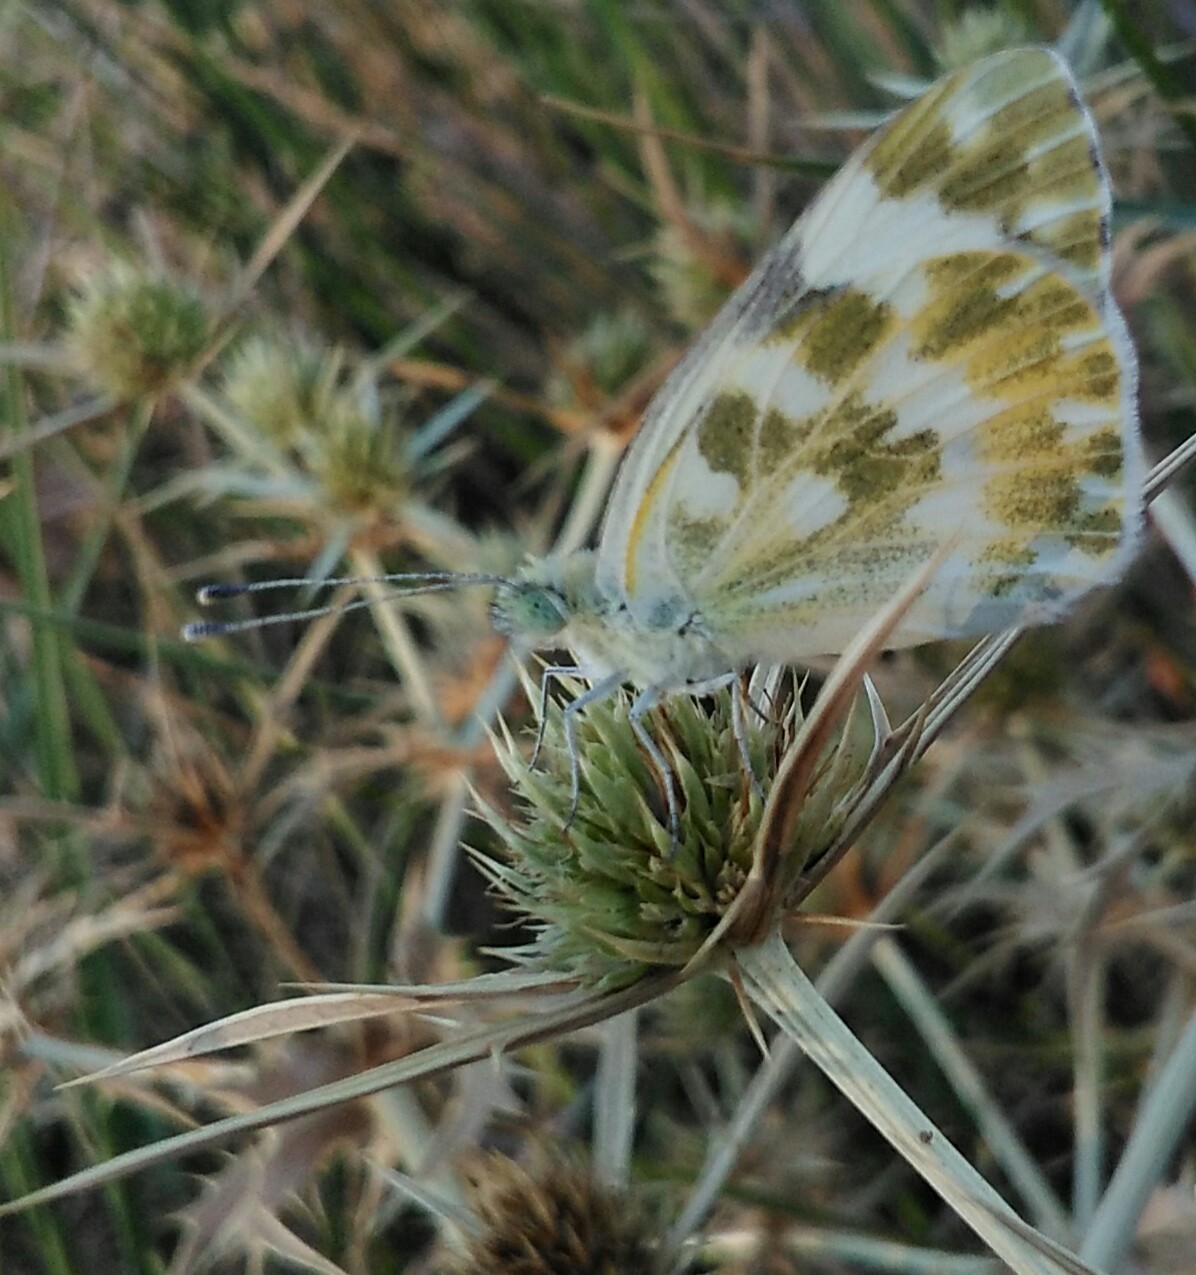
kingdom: Animalia
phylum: Arthropoda
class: Insecta
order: Lepidoptera
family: Pieridae
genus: Pontia
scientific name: Pontia daplidice
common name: Bath white
